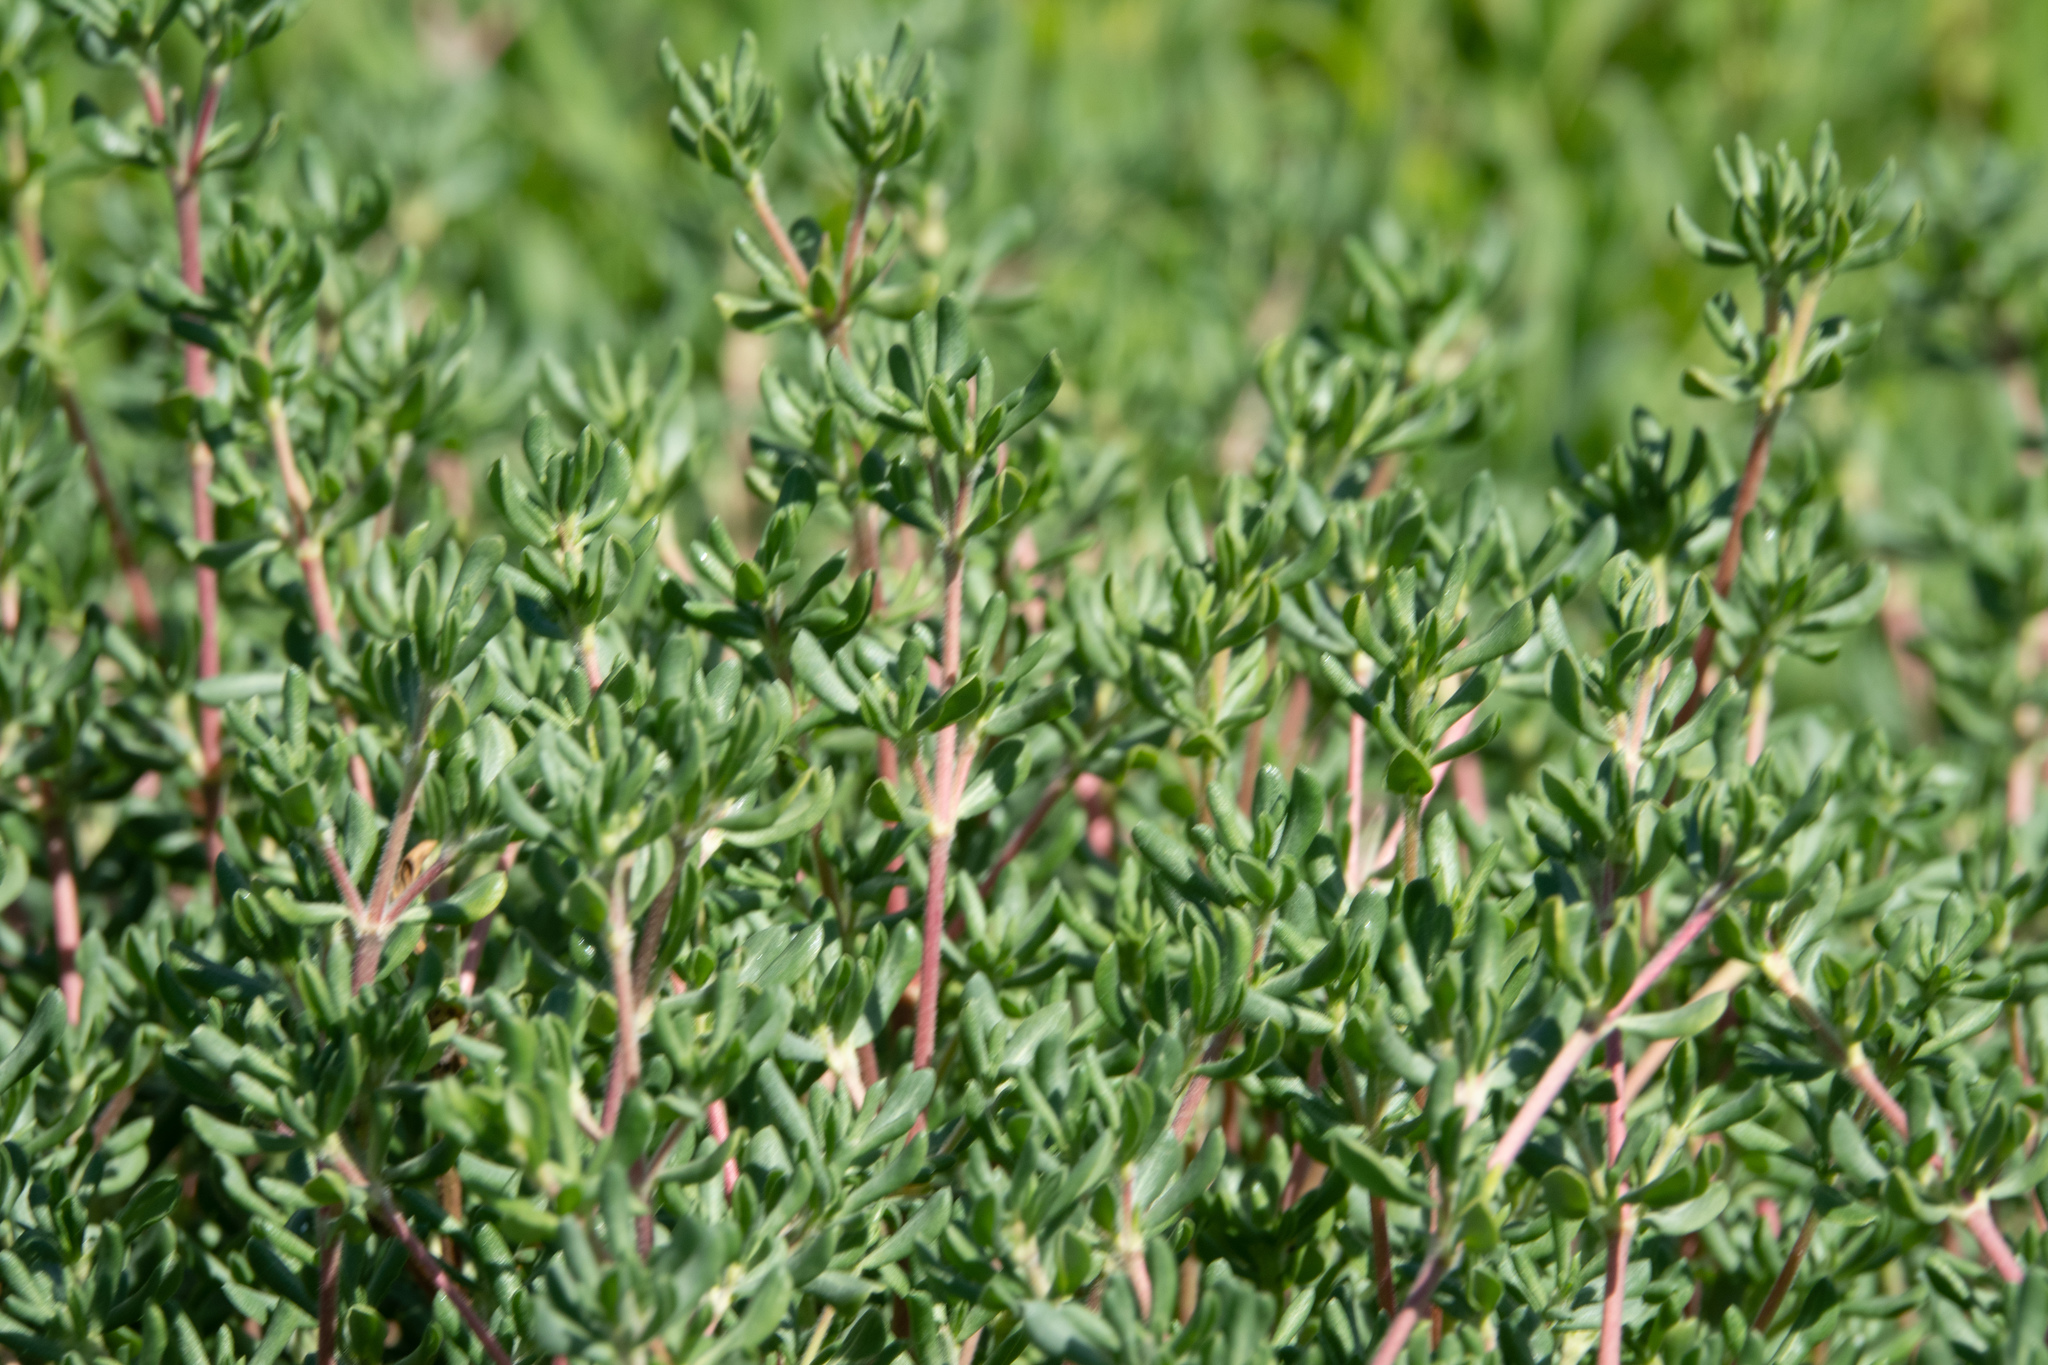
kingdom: Plantae
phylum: Tracheophyta
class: Magnoliopsida
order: Caryophyllales
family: Frankeniaceae
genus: Frankenia
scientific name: Frankenia salina
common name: Alkali seaheath
